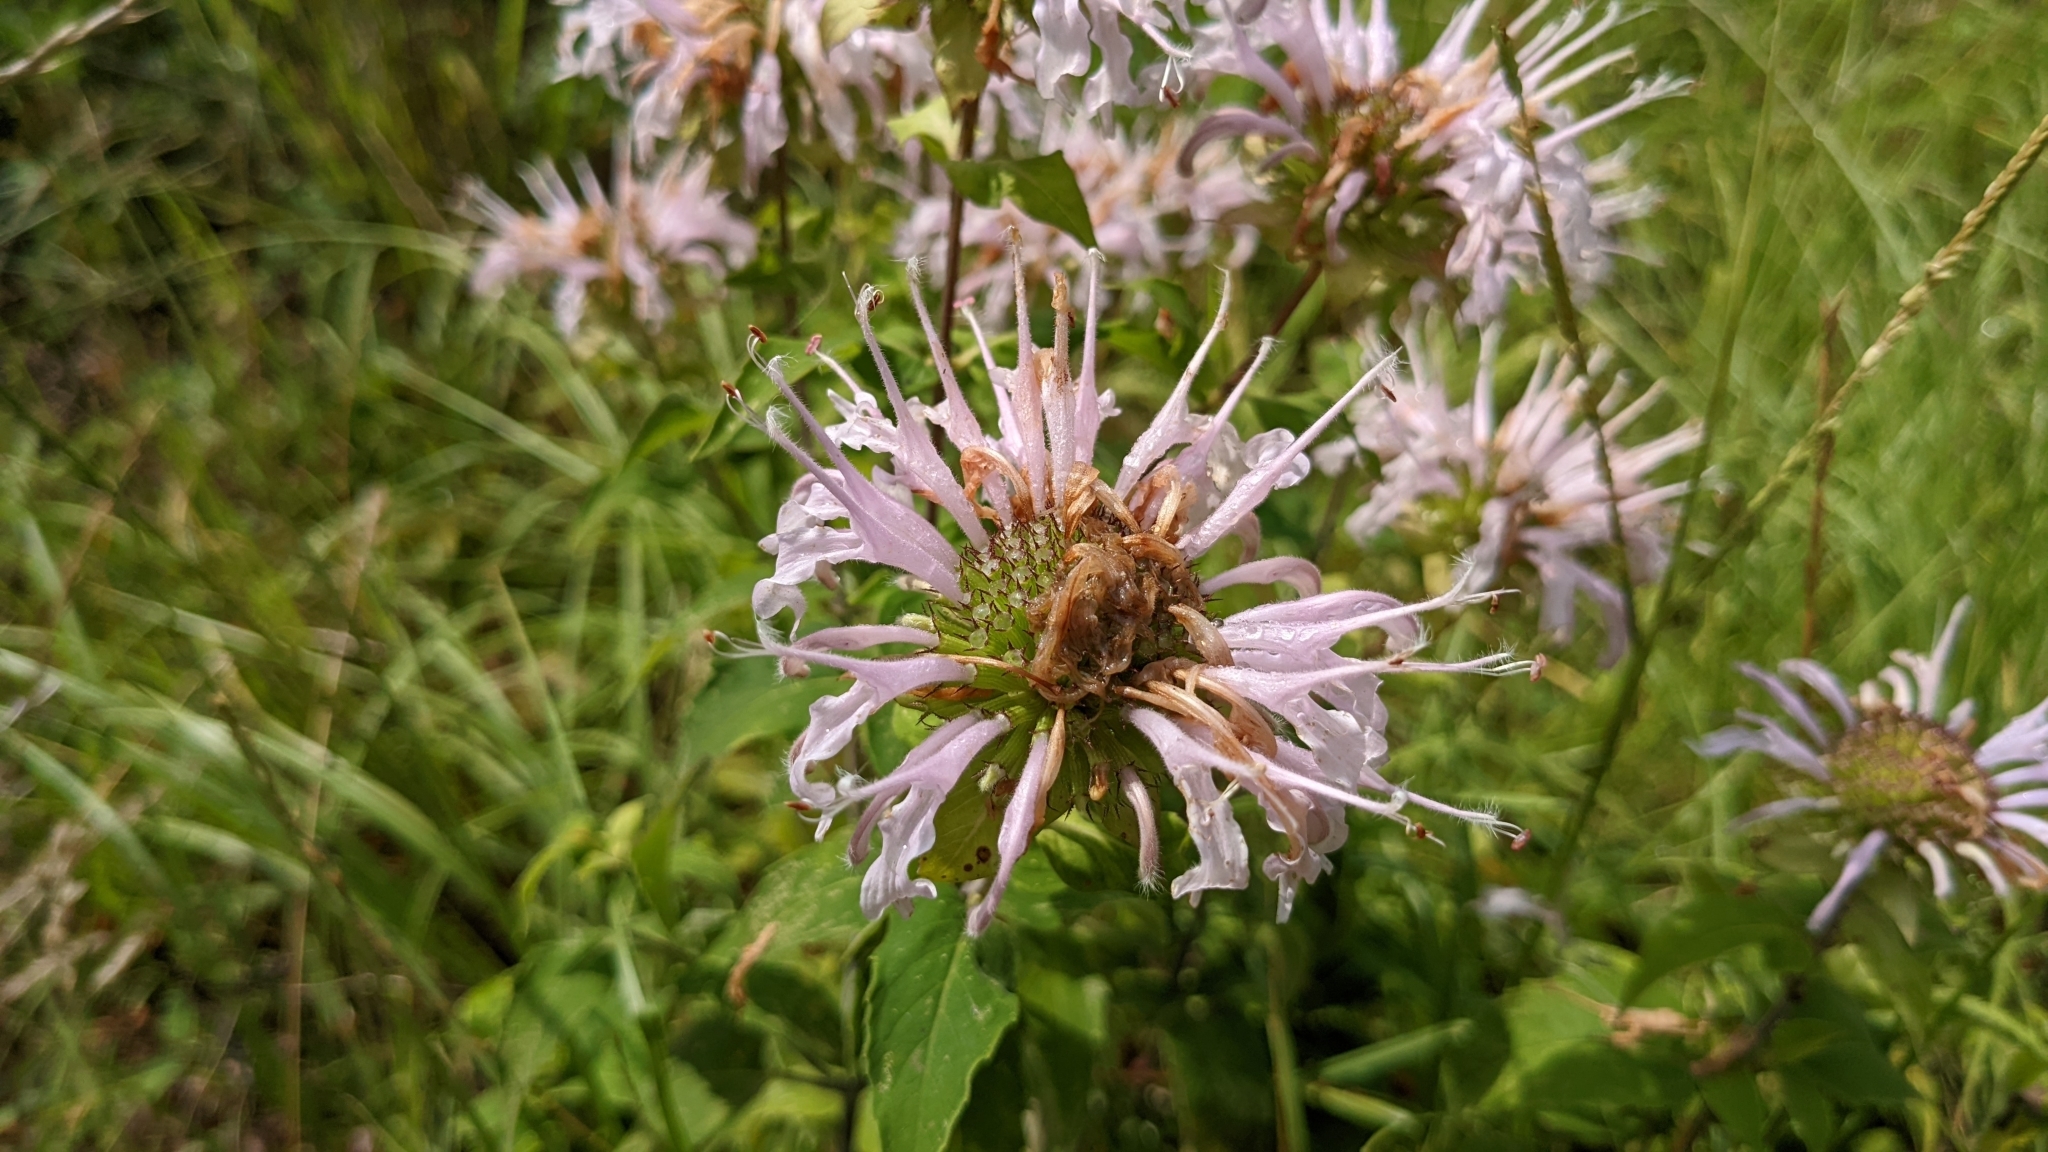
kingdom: Plantae
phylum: Tracheophyta
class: Magnoliopsida
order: Lamiales
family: Lamiaceae
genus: Monarda
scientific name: Monarda fistulosa
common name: Purple beebalm
